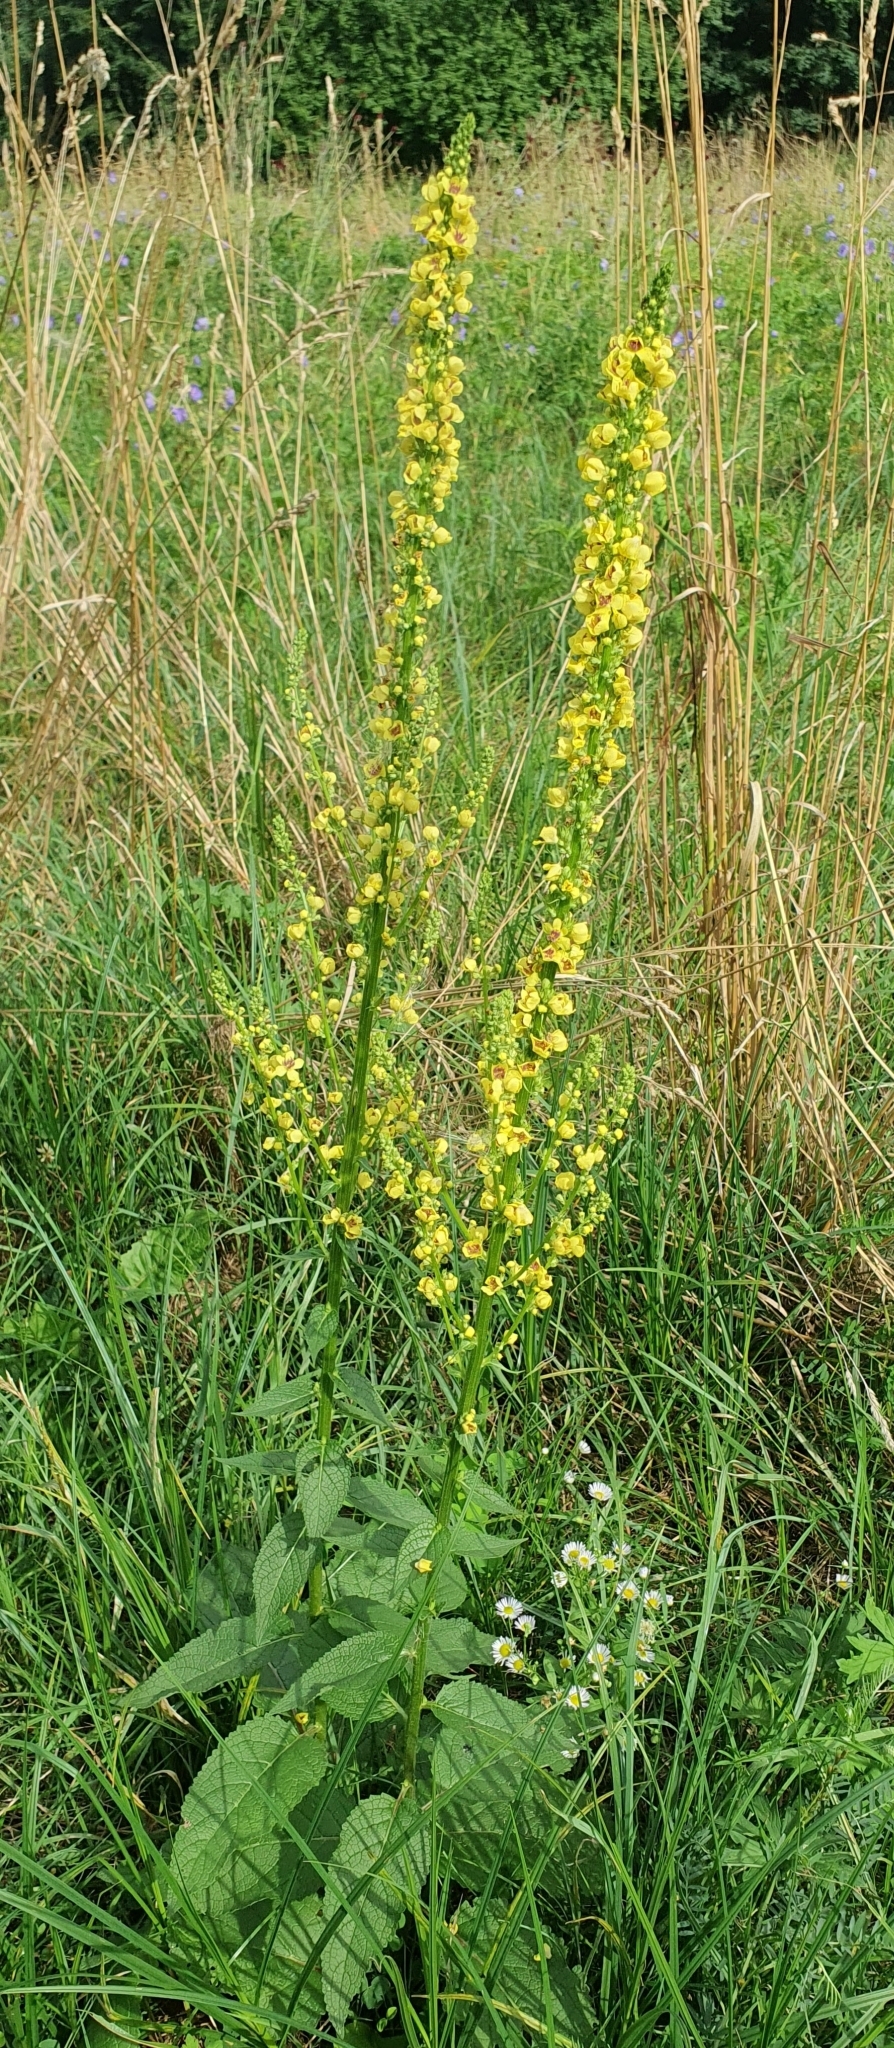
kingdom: Plantae
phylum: Tracheophyta
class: Magnoliopsida
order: Lamiales
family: Scrophulariaceae
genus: Verbascum
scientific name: Verbascum nigrum
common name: Dark mullein
